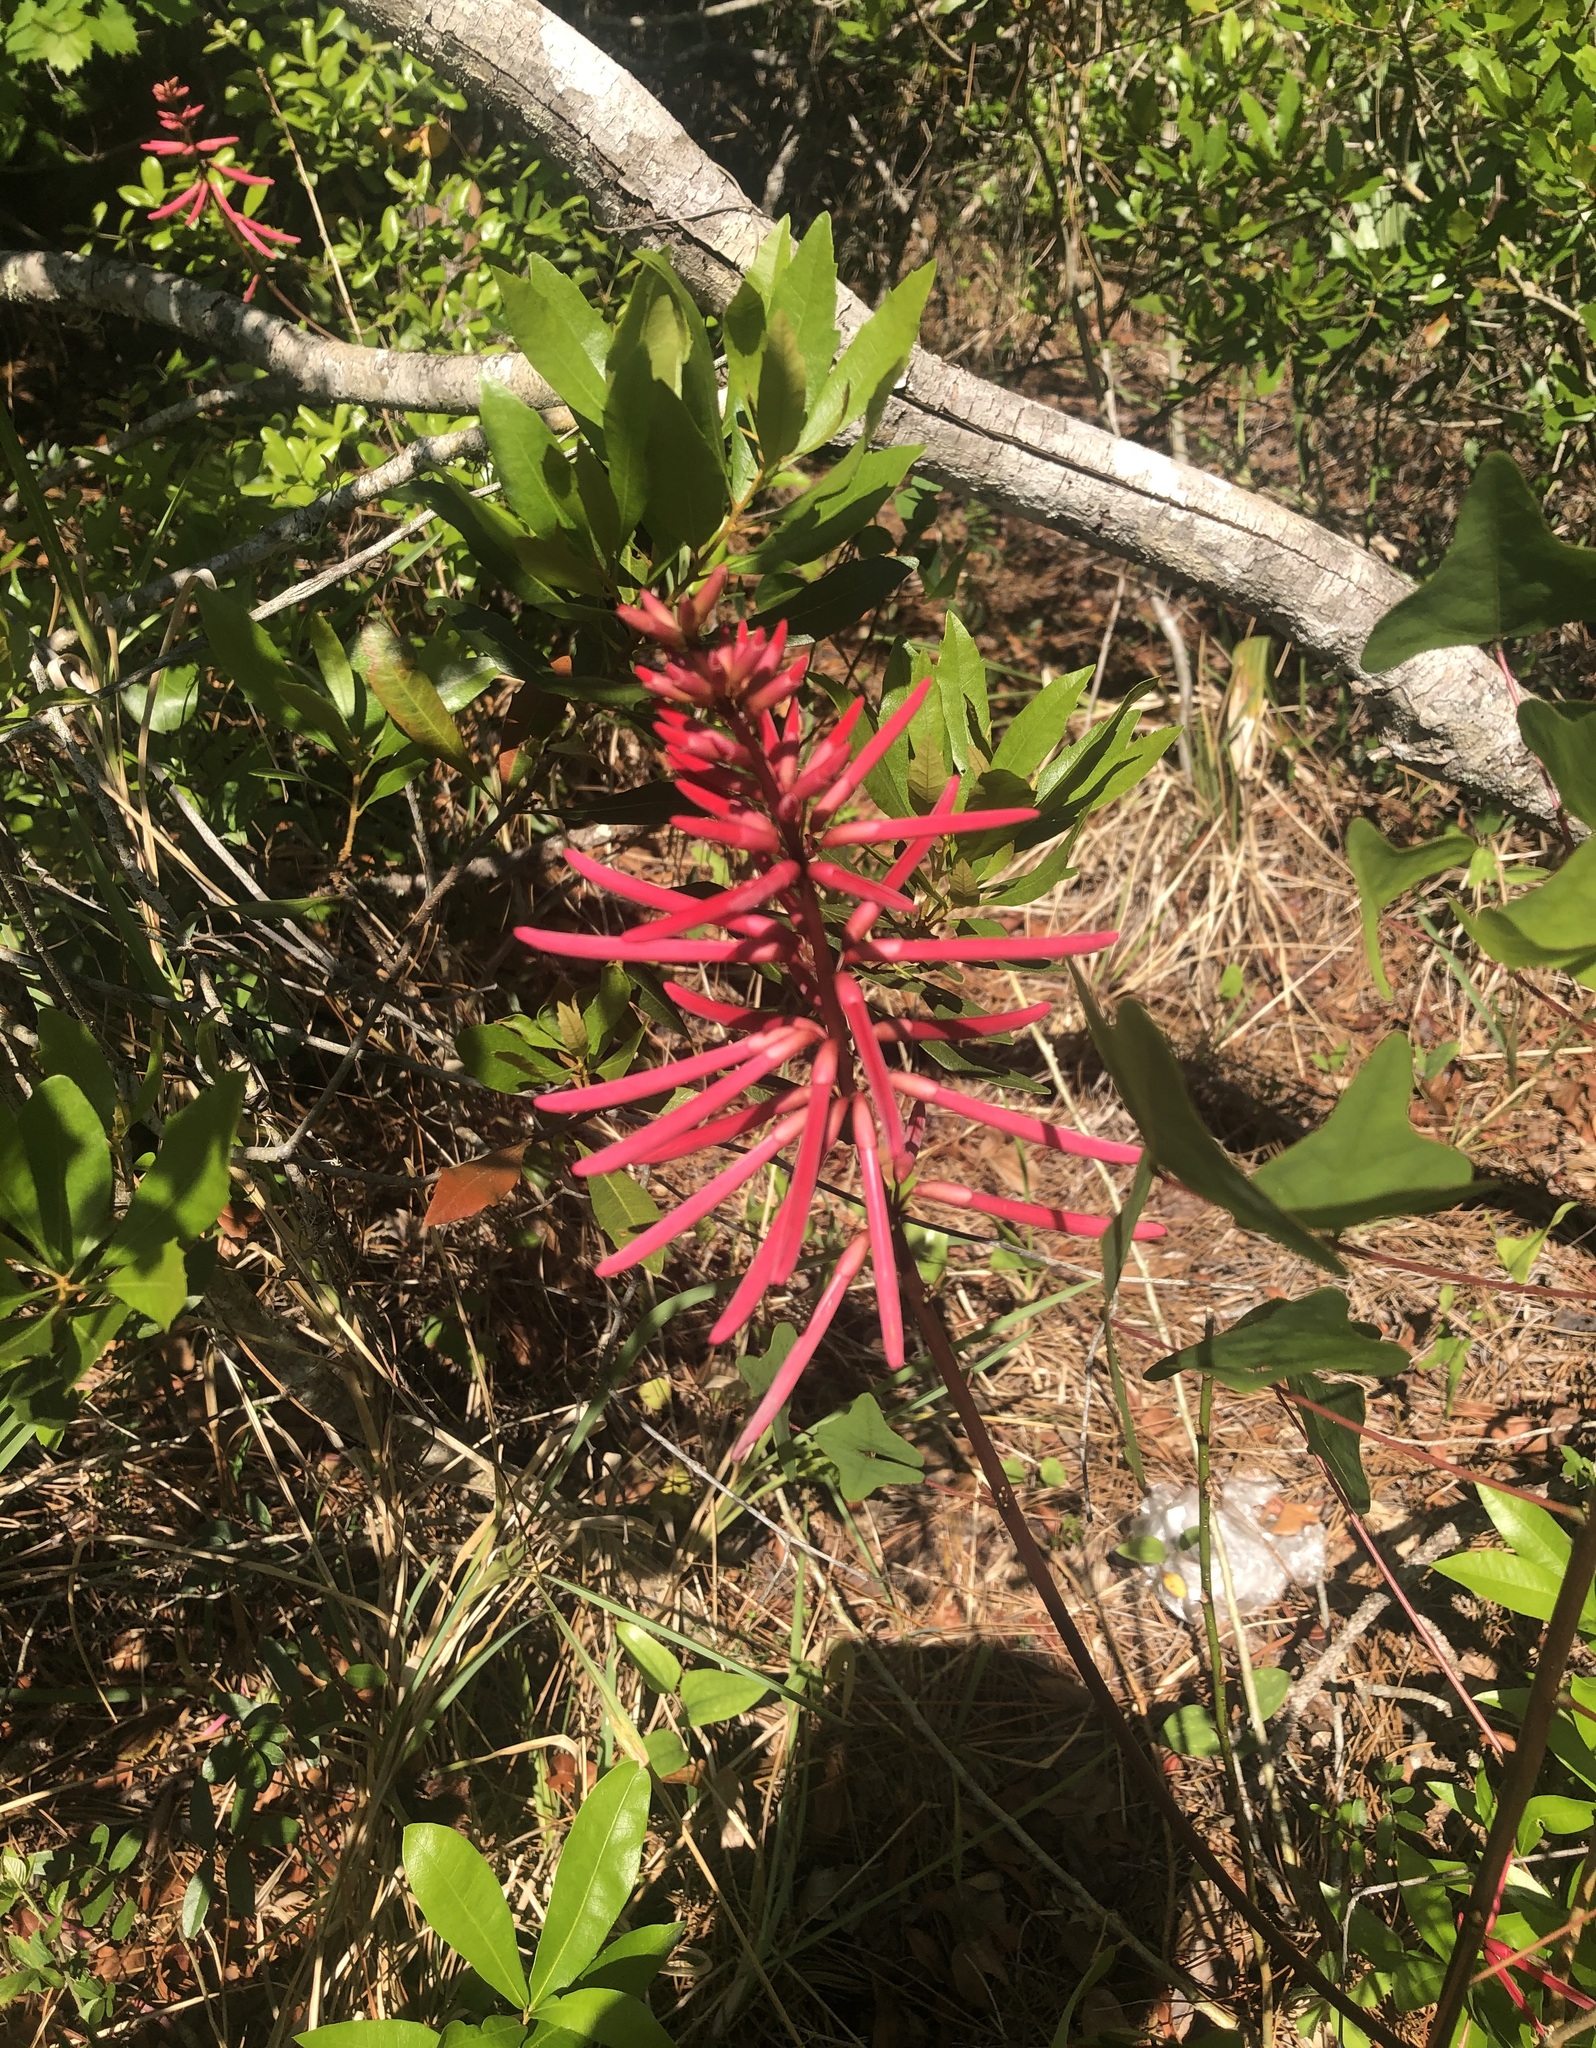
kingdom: Plantae
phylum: Tracheophyta
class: Magnoliopsida
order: Fabales
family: Fabaceae
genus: Erythrina
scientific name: Erythrina herbacea
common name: Coral-bean
